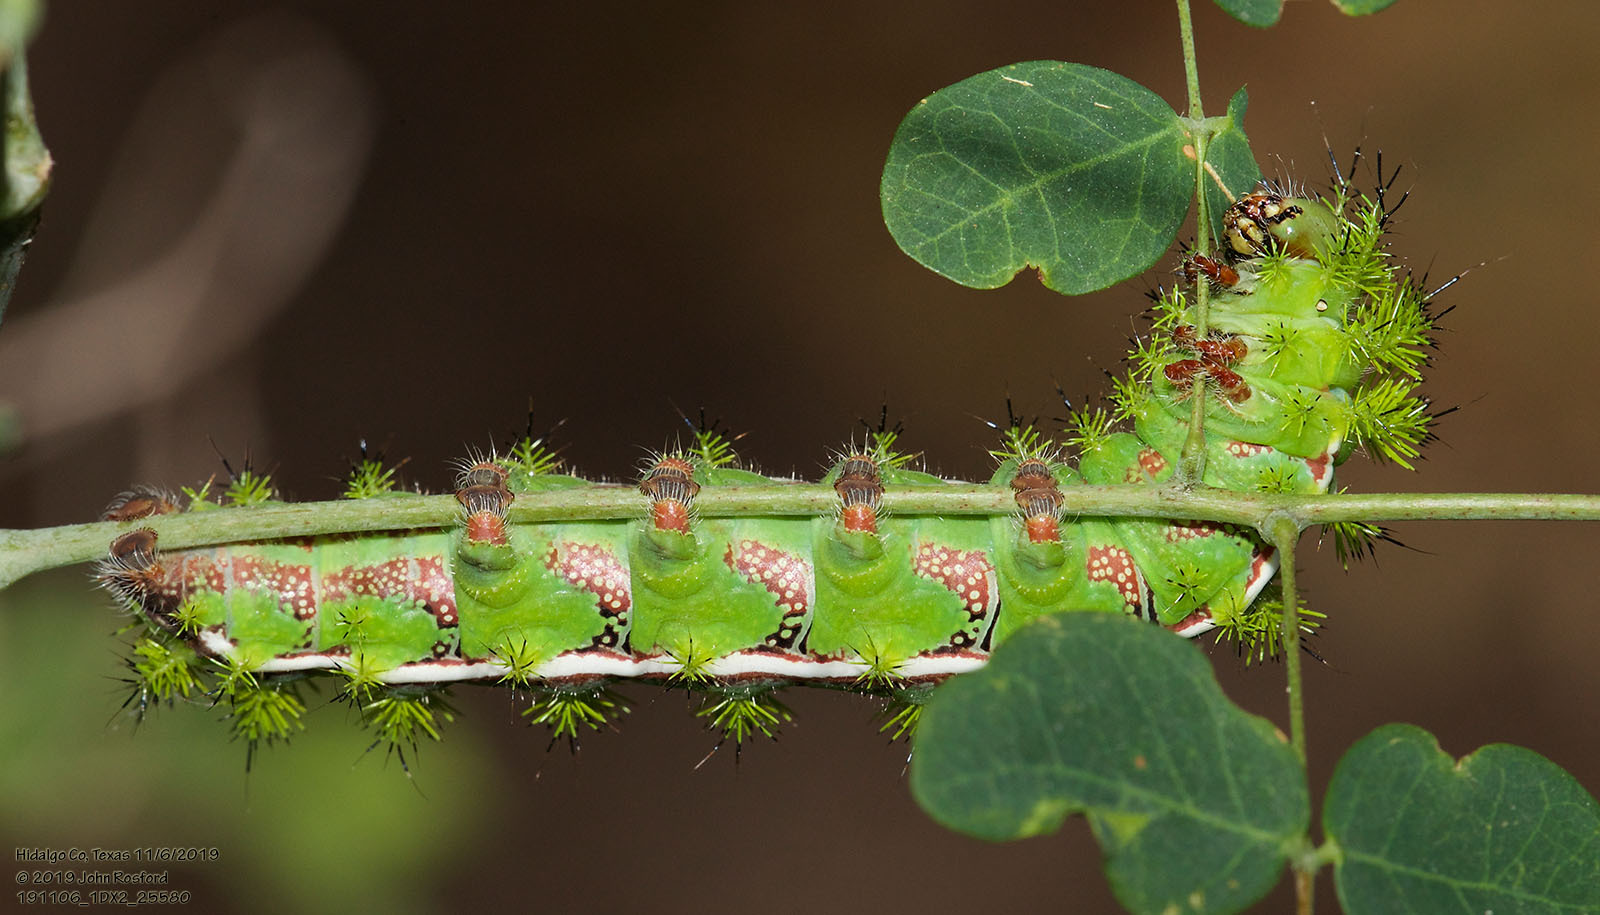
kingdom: Animalia
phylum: Arthropoda
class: Insecta
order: Lepidoptera
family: Saturniidae
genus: Automeris
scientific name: Automeris io
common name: Io moth
